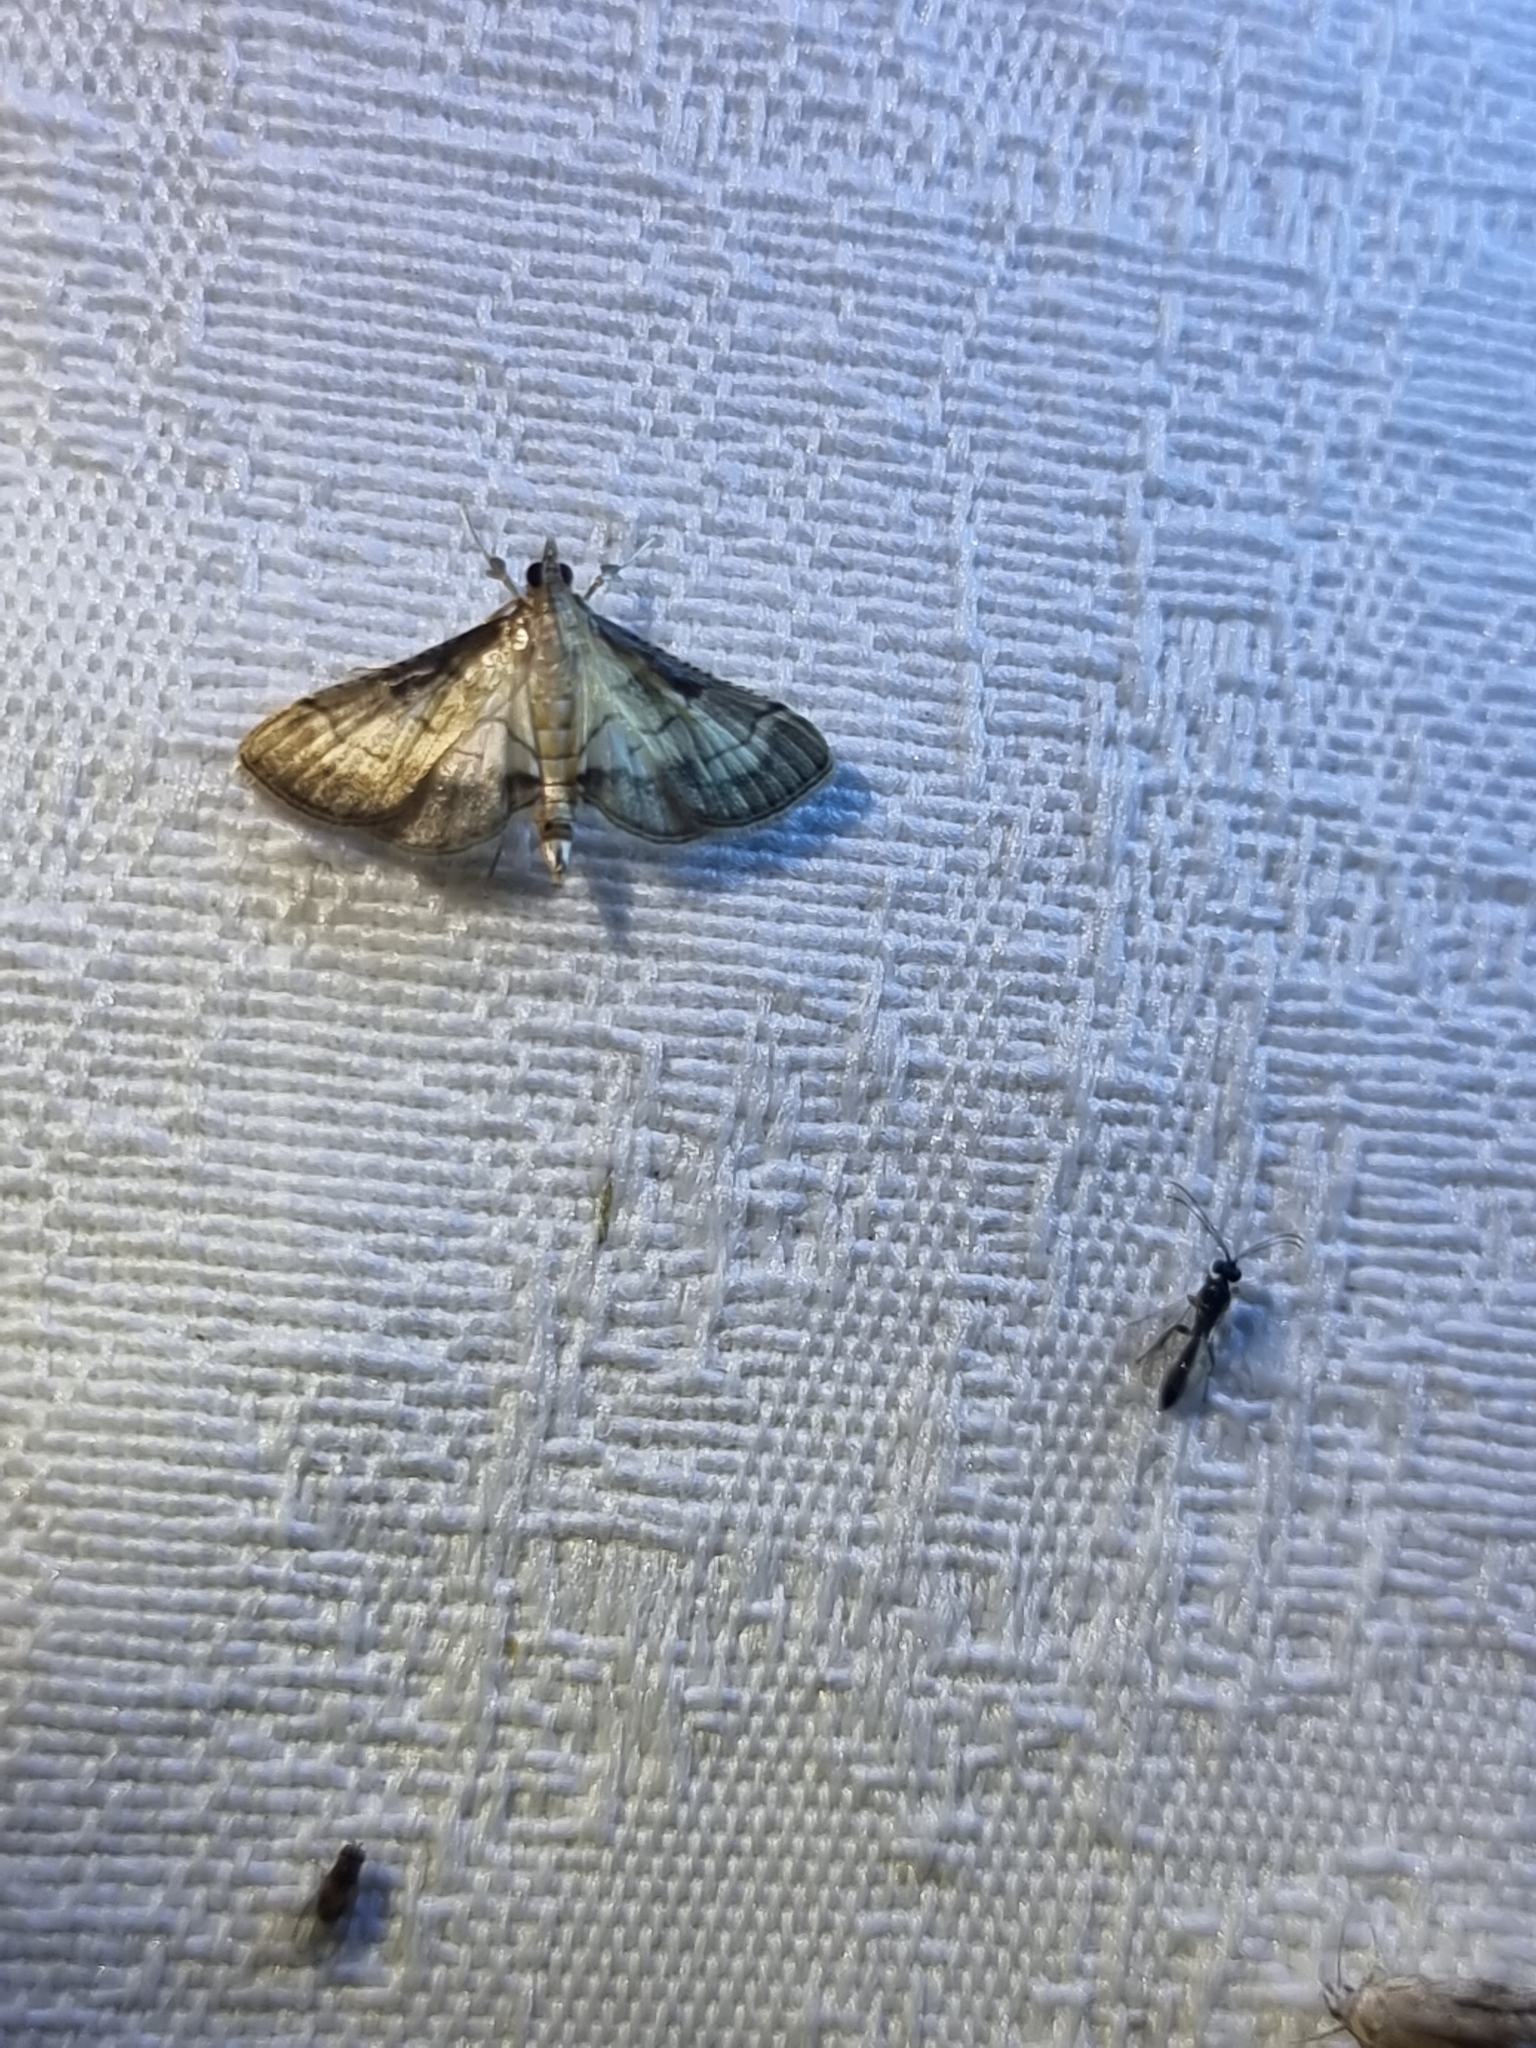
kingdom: Animalia
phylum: Arthropoda
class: Insecta
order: Lepidoptera
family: Crambidae
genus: Cnaphalocrocis
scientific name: Cnaphalocrocis poeyalis
